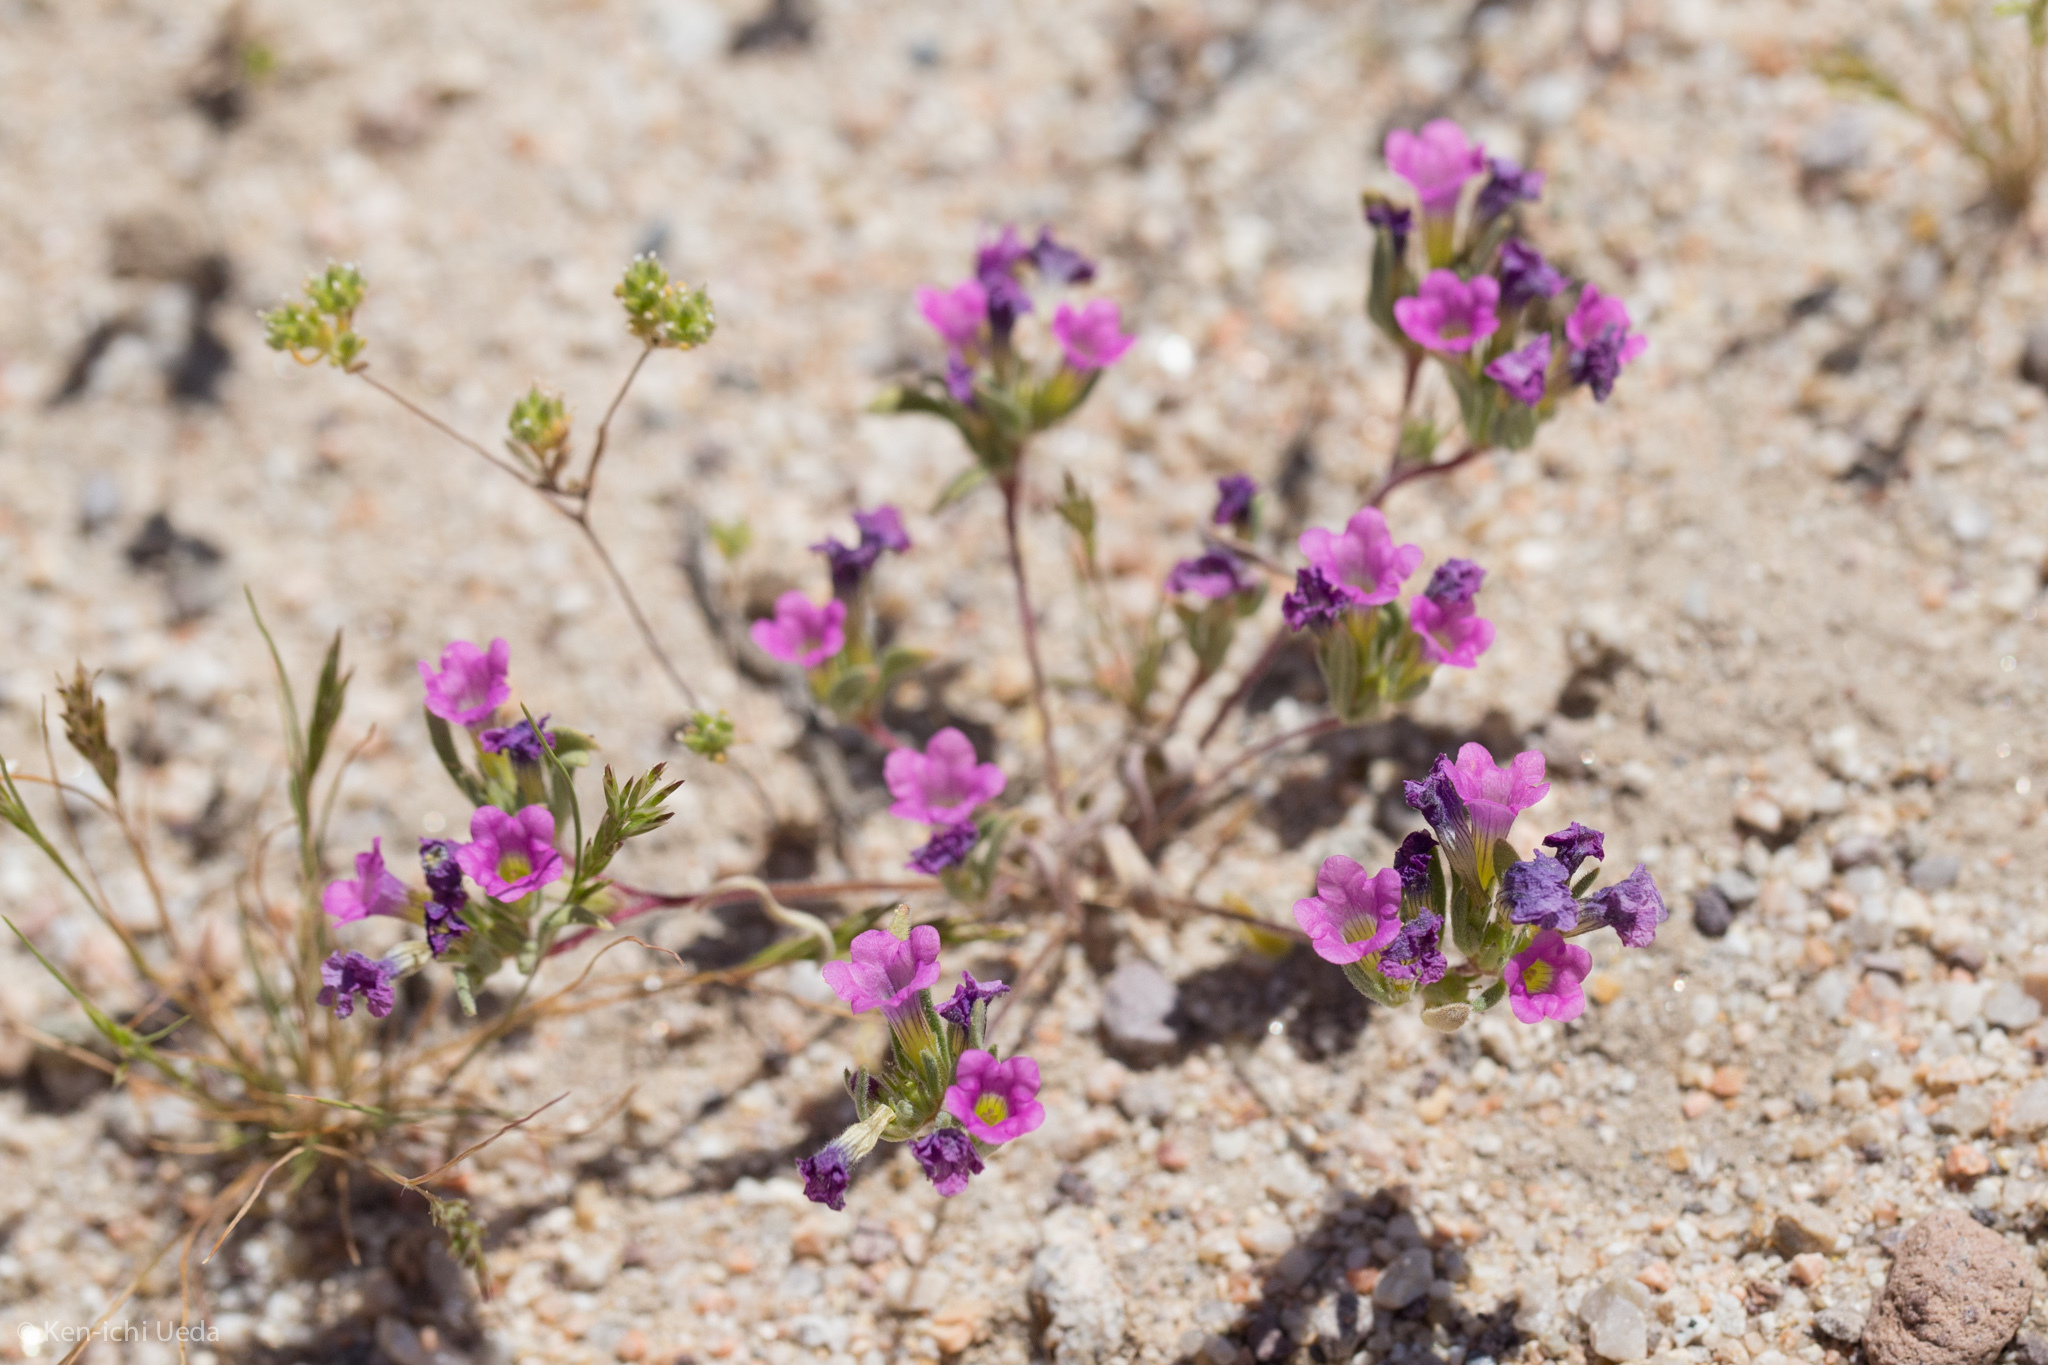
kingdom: Plantae
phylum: Tracheophyta
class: Magnoliopsida
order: Boraginales
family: Namaceae
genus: Nama
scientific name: Nama demissa
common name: Leafy nama
